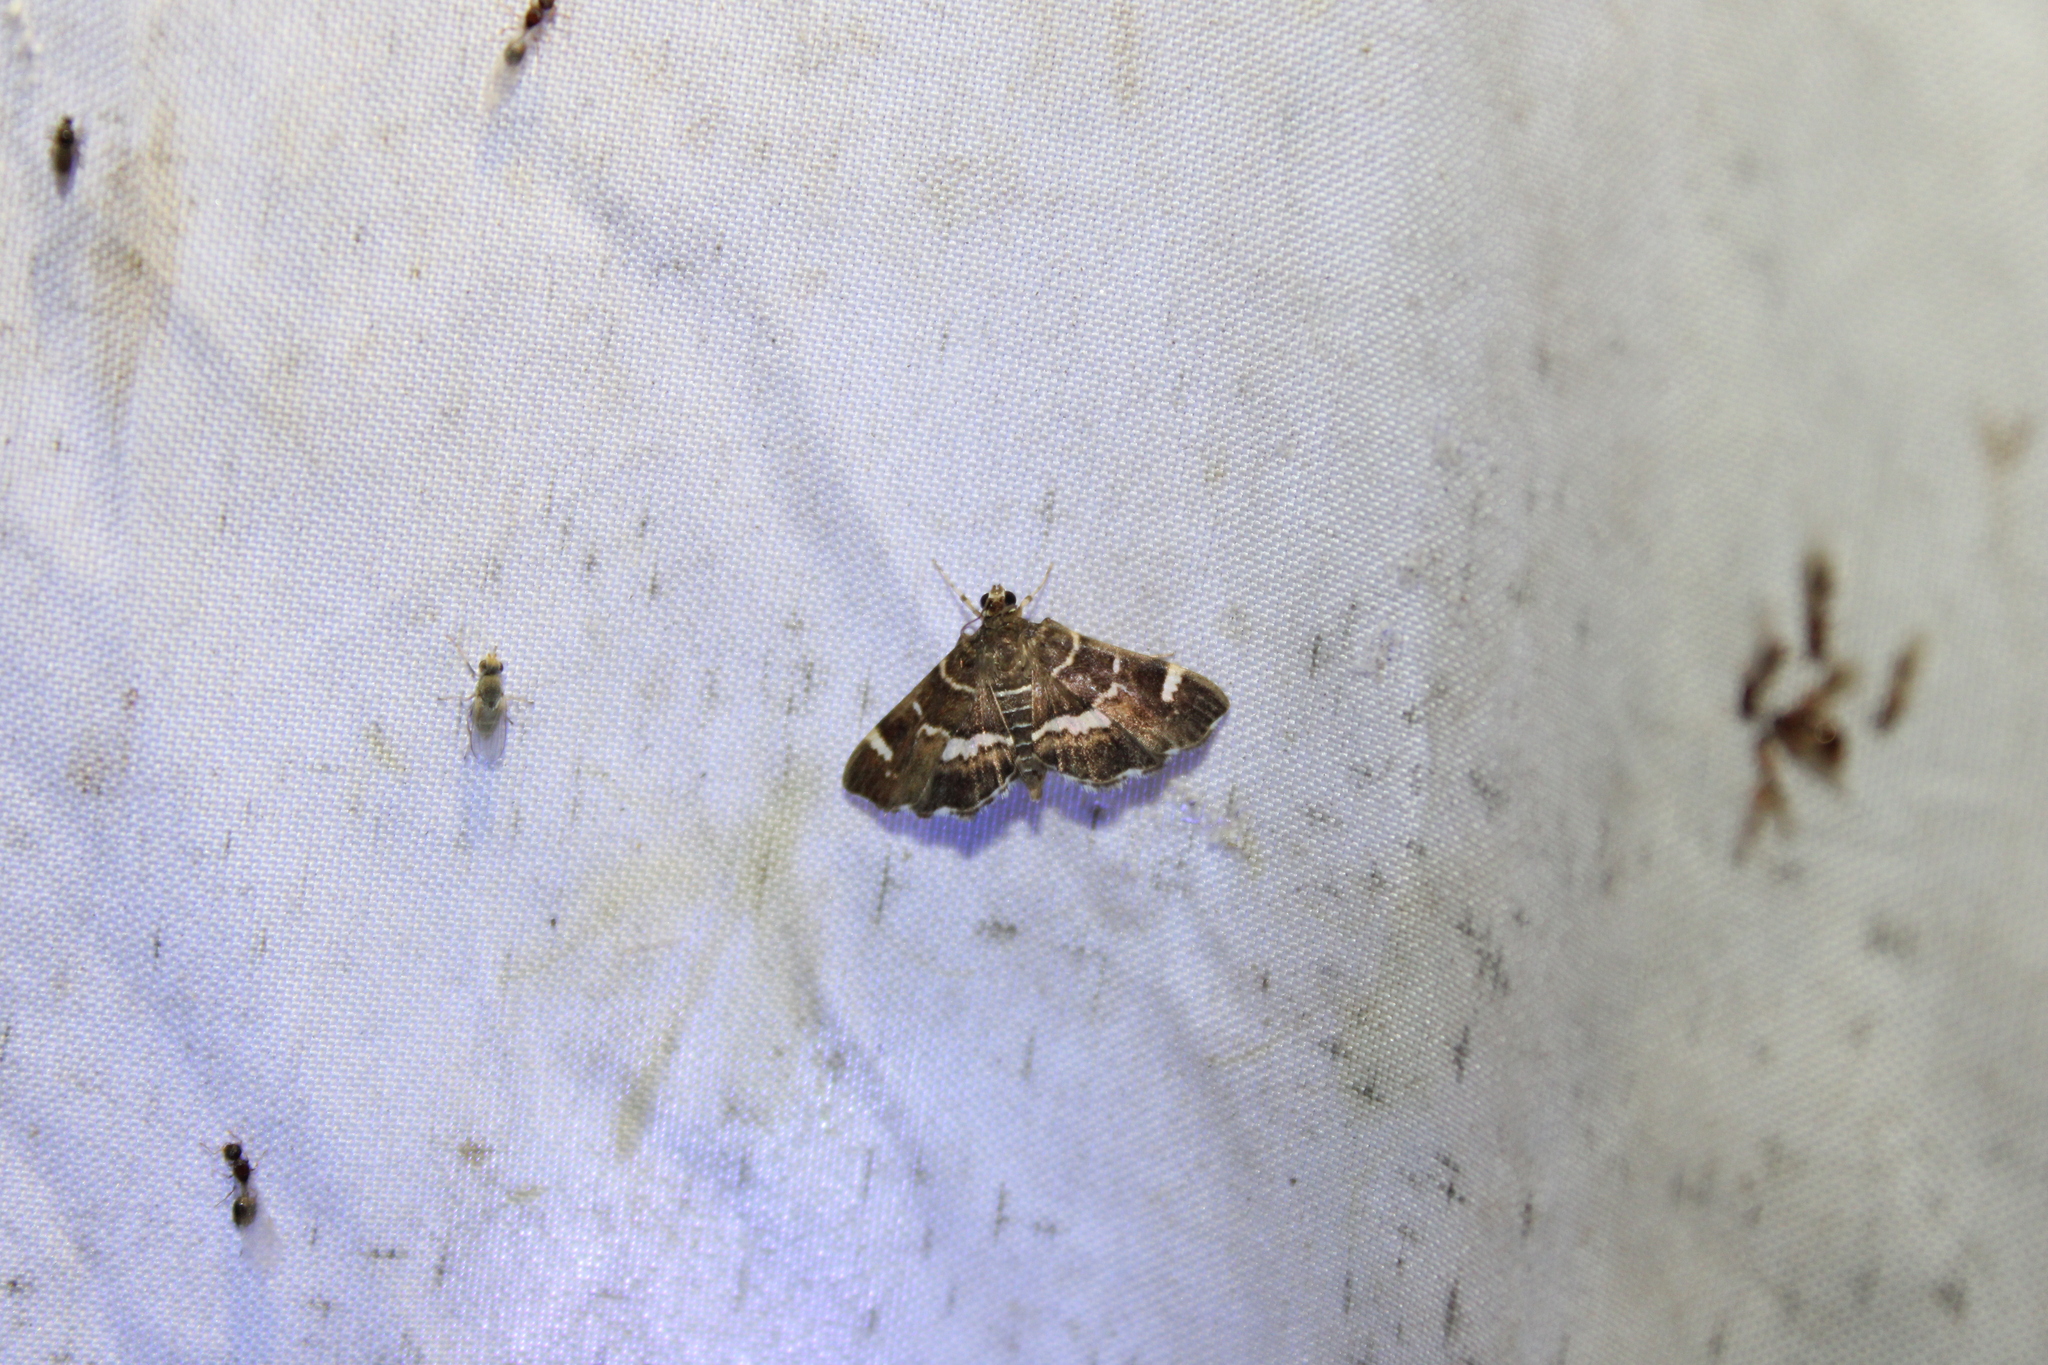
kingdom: Animalia
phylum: Arthropoda
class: Insecta
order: Lepidoptera
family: Crambidae
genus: Hymenia
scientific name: Hymenia perspectalis
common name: Spotted beet webworm
